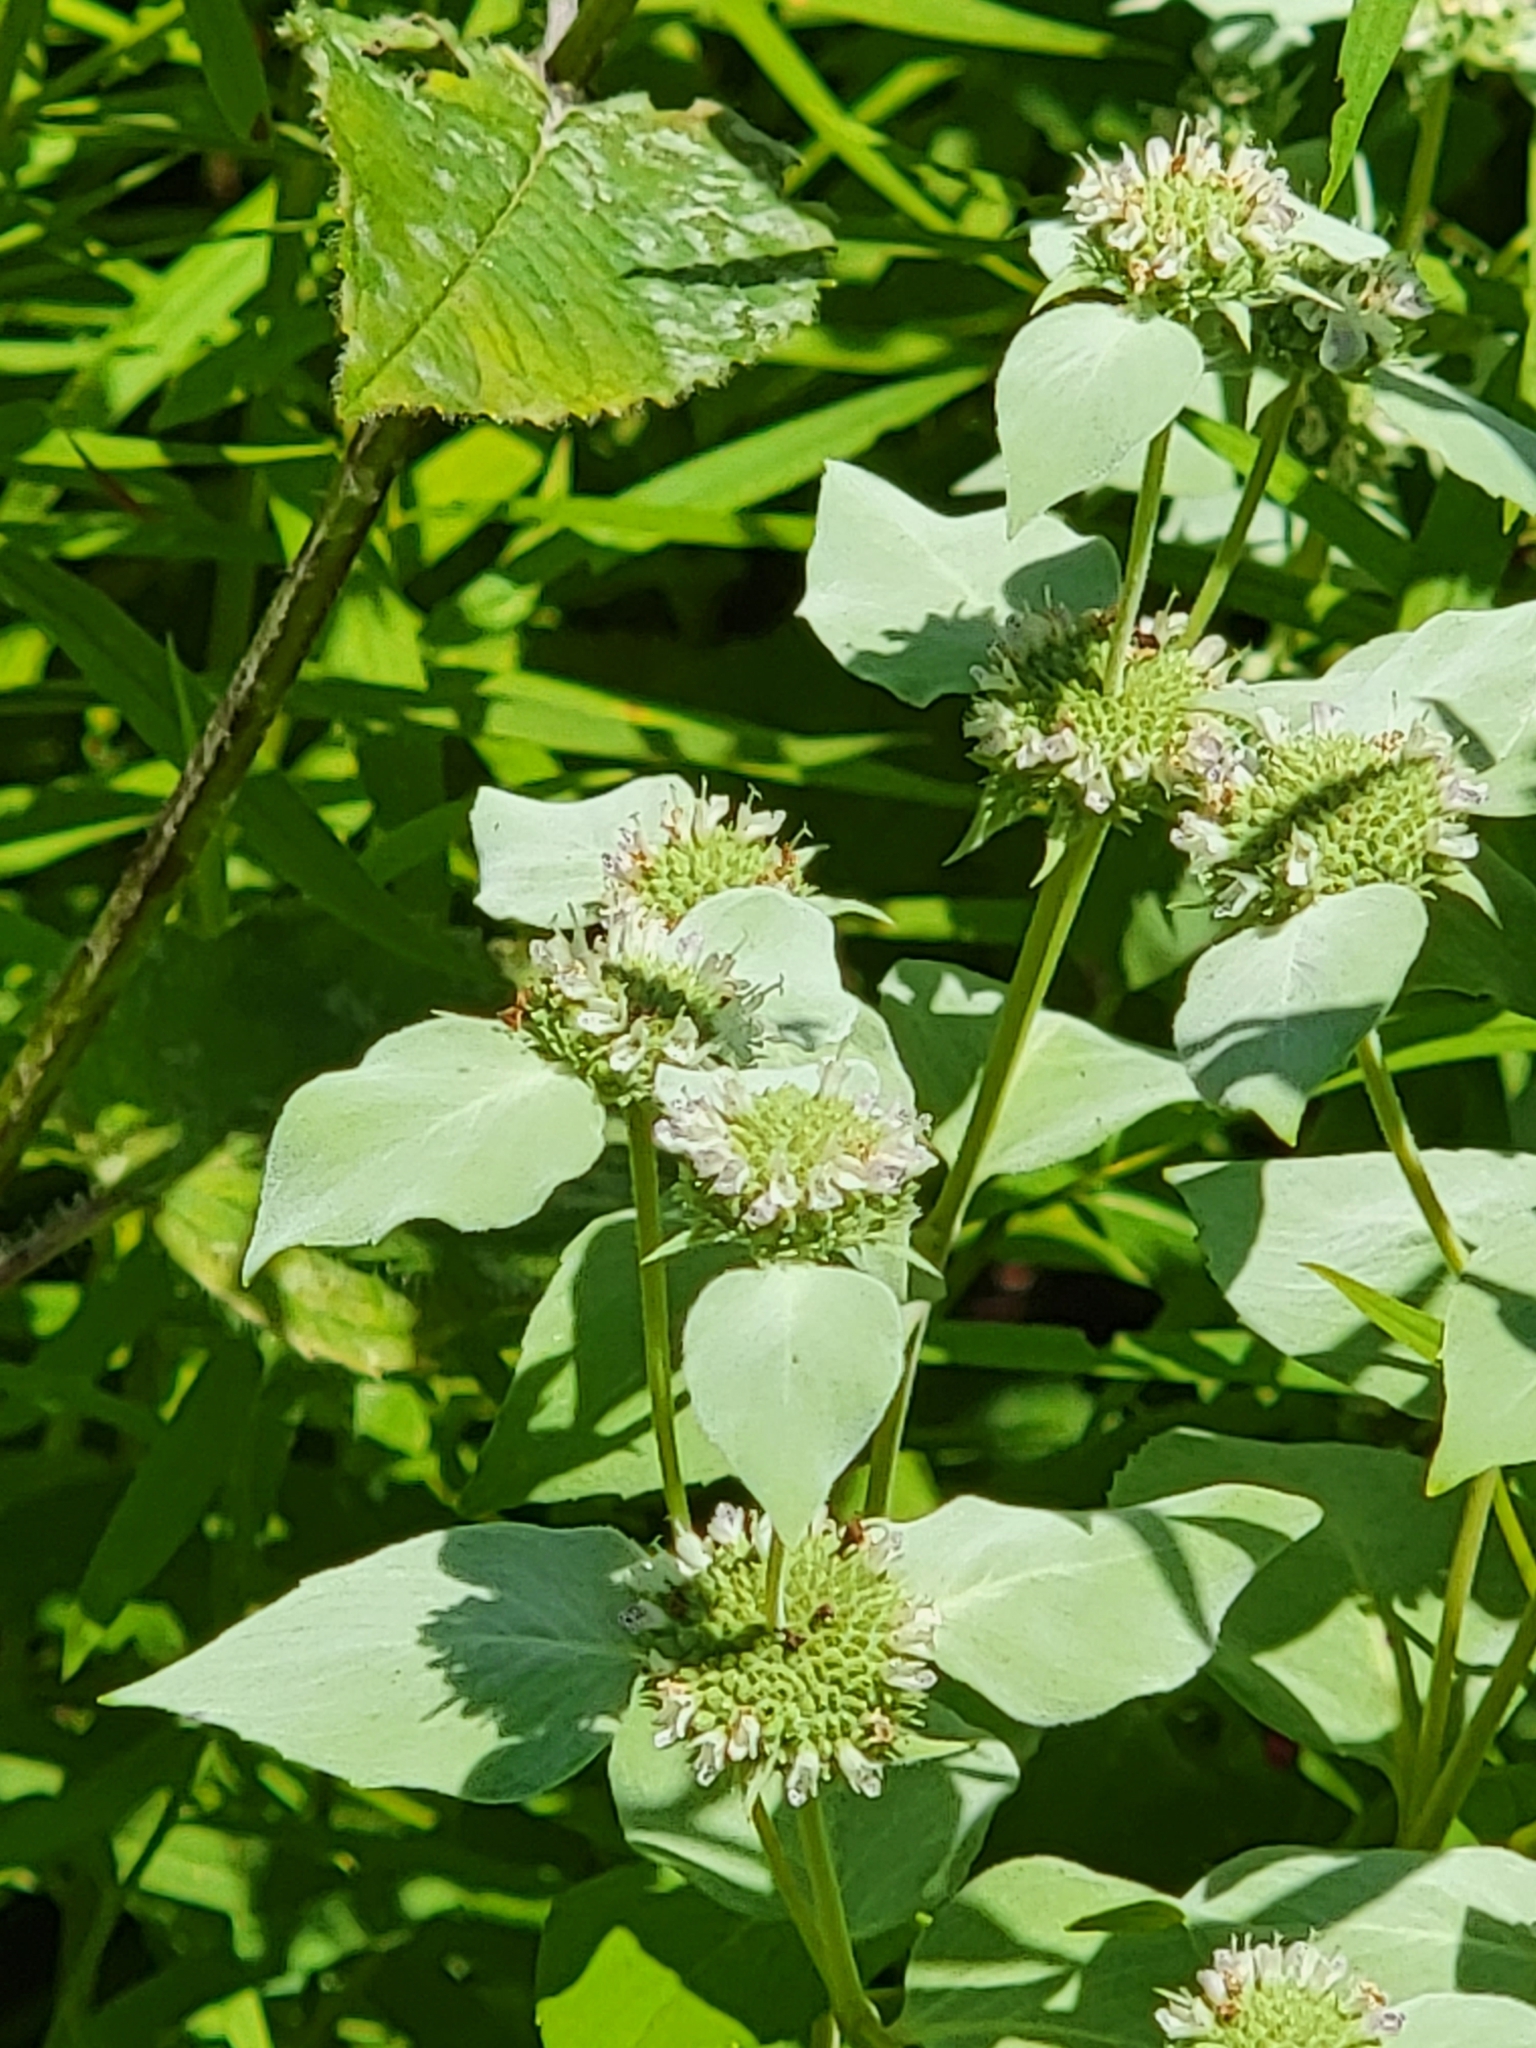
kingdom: Plantae
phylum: Tracheophyta
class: Magnoliopsida
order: Lamiales
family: Lamiaceae
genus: Pycnanthemum
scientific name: Pycnanthemum muticum
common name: Blunt mountain-mint
